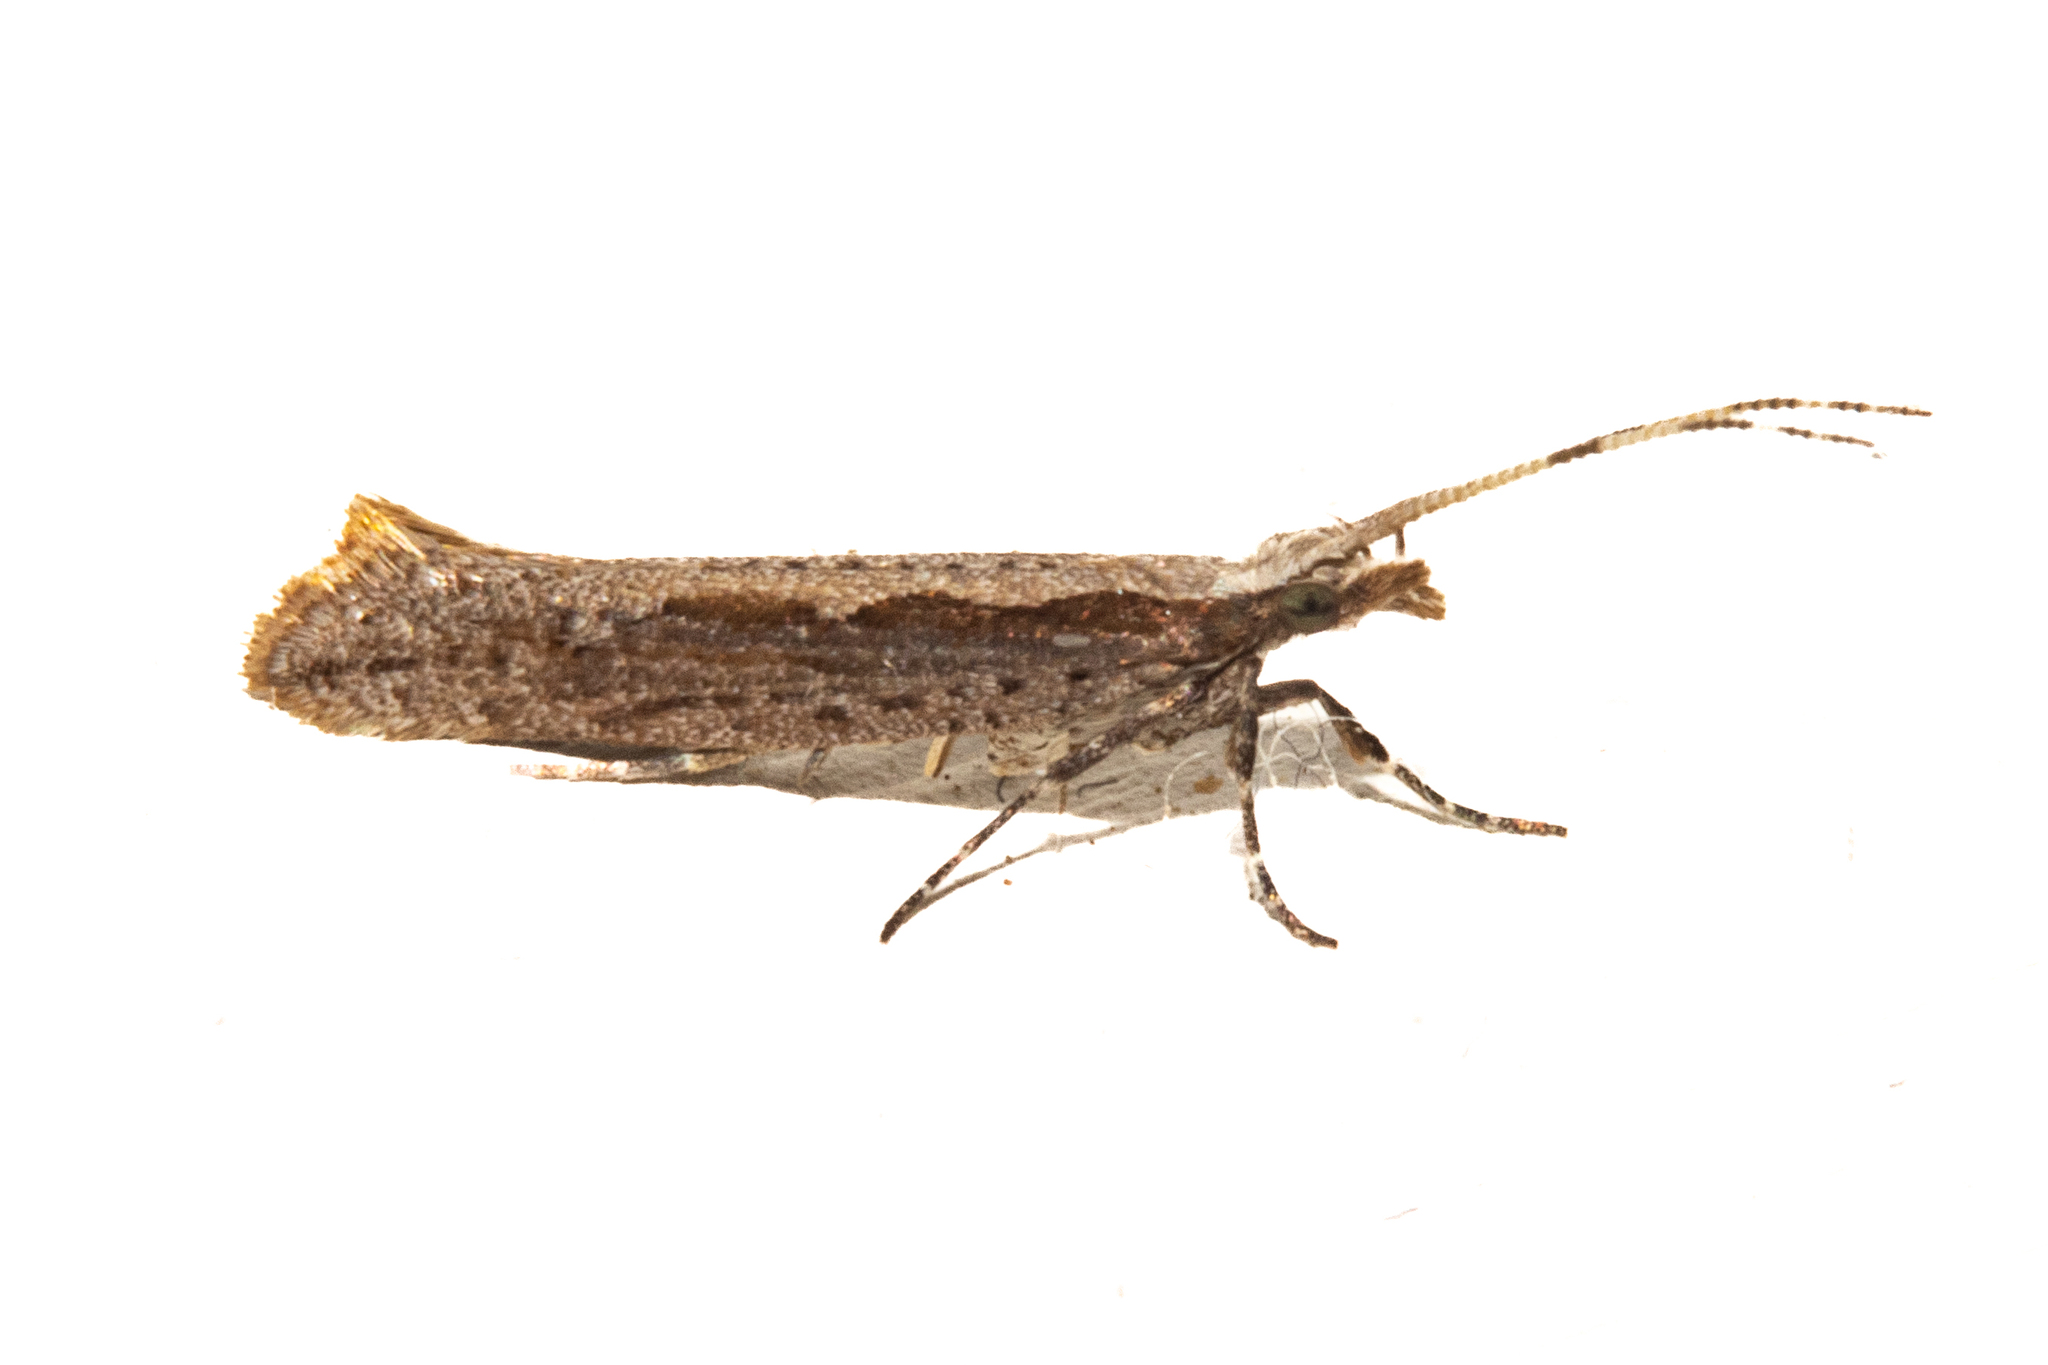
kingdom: Animalia
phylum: Arthropoda
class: Insecta
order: Lepidoptera
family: Plutellidae
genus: Plutella
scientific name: Plutella xylostella
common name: Diamond-back moth
